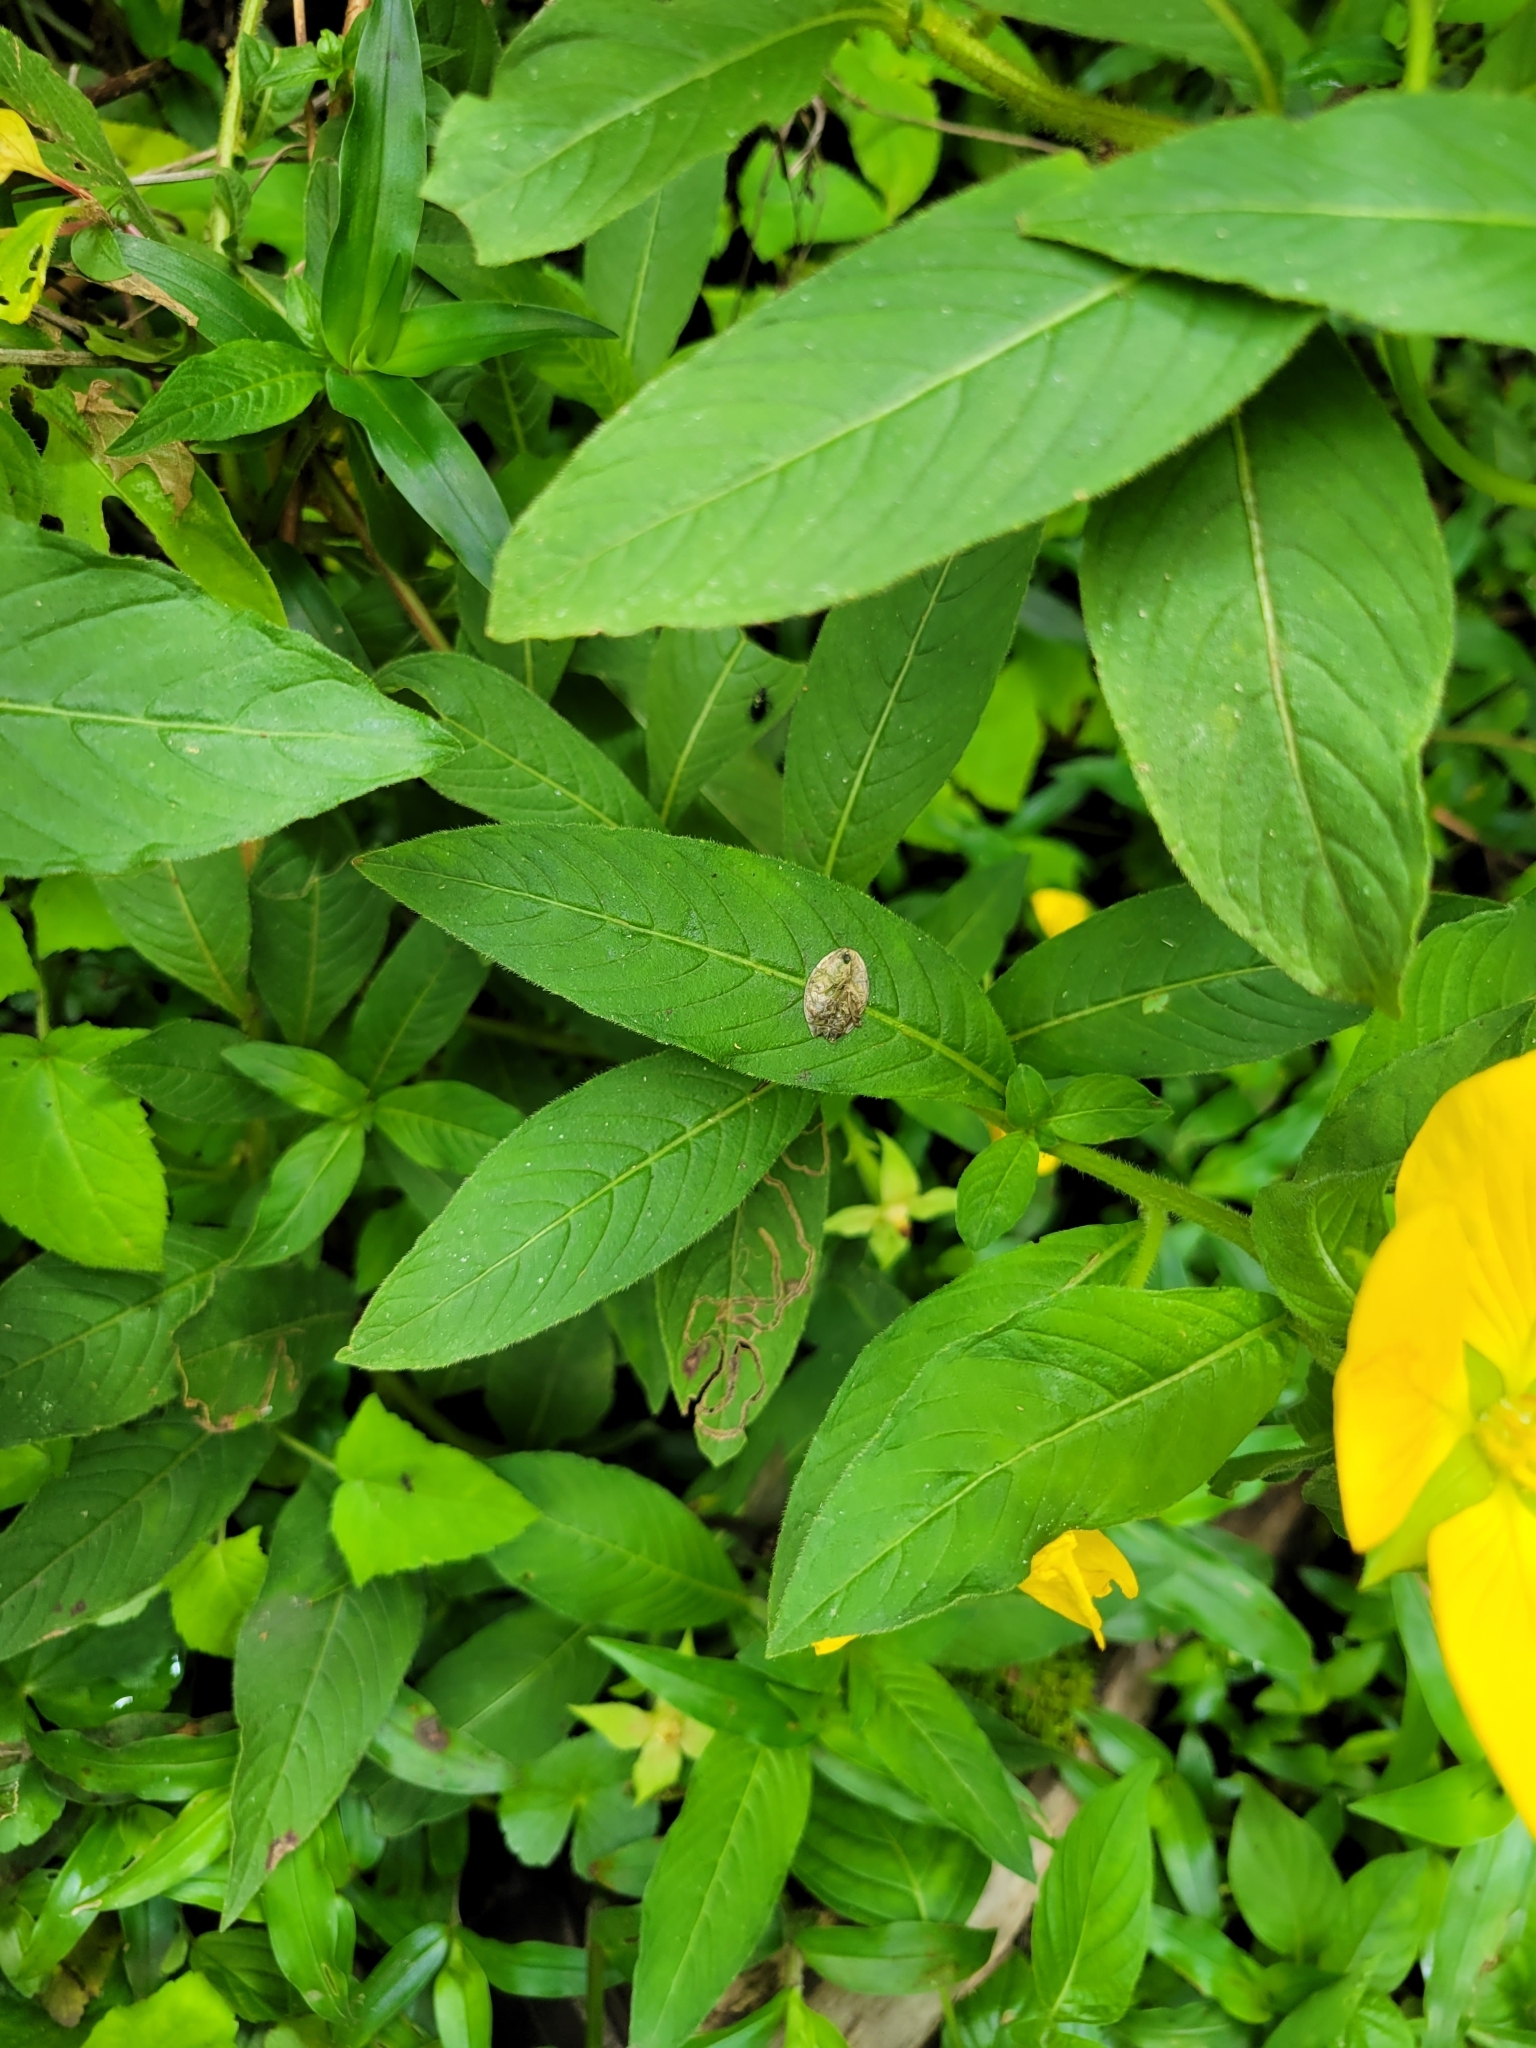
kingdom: Plantae
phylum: Tracheophyta
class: Magnoliopsida
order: Myrtales
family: Onagraceae
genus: Ludwigia
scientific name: Ludwigia octovalvis
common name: Water-primrose
